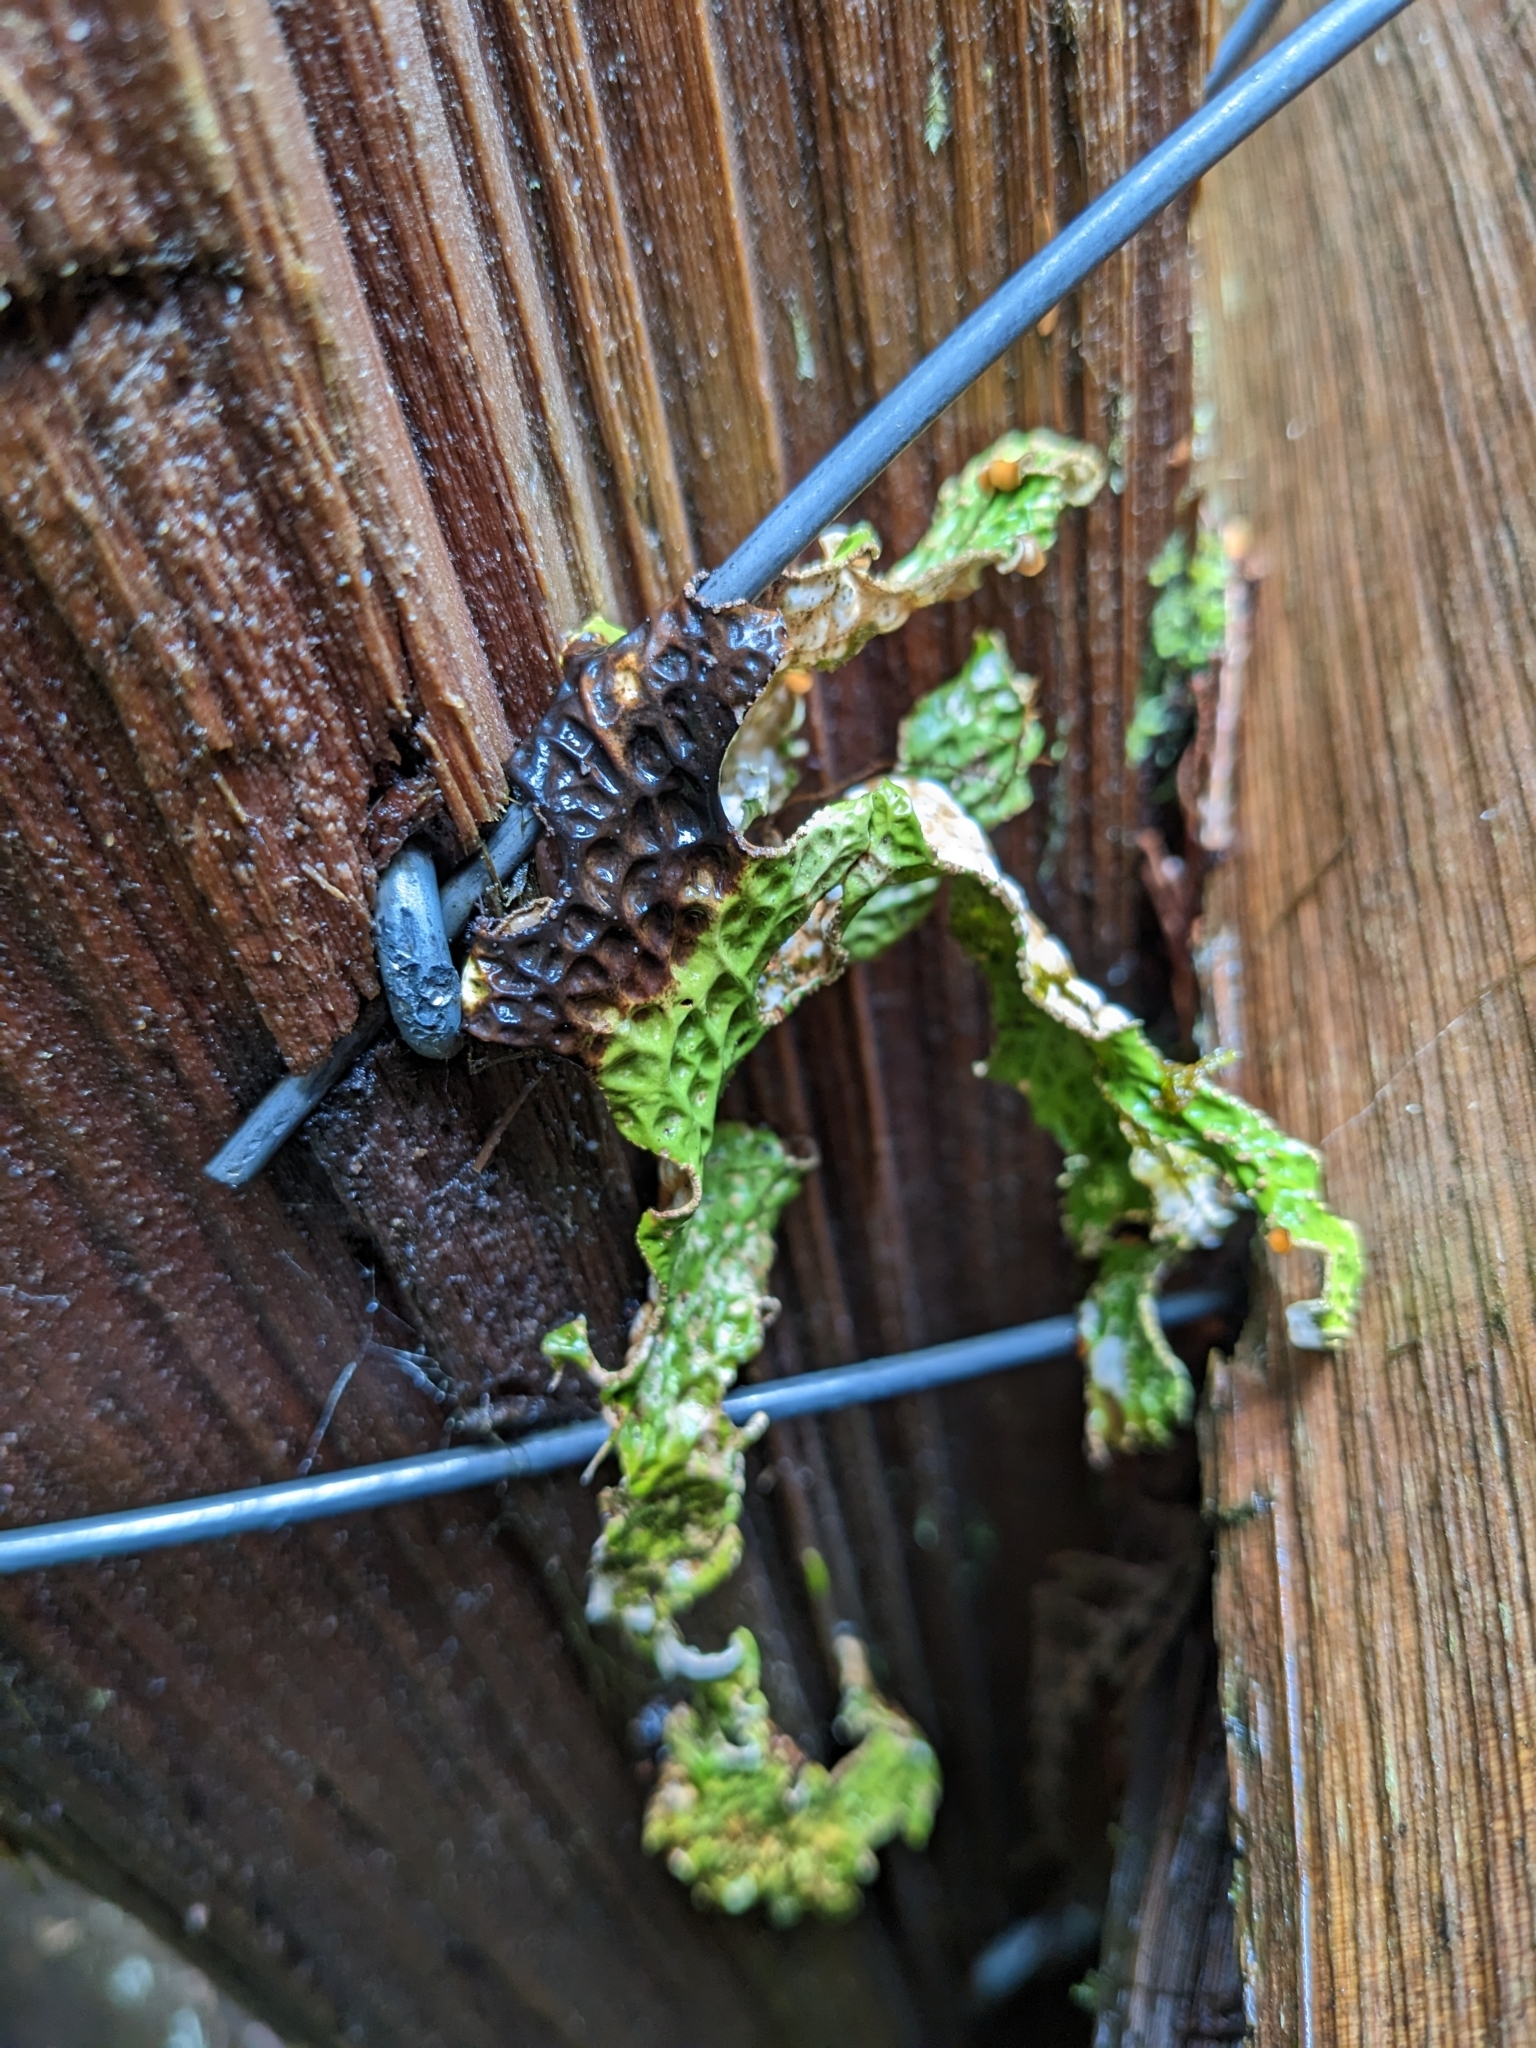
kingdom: Fungi
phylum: Ascomycota
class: Lecanoromycetes
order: Peltigerales
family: Lobariaceae
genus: Lobaria
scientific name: Lobaria pulmonaria
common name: Lungwort
